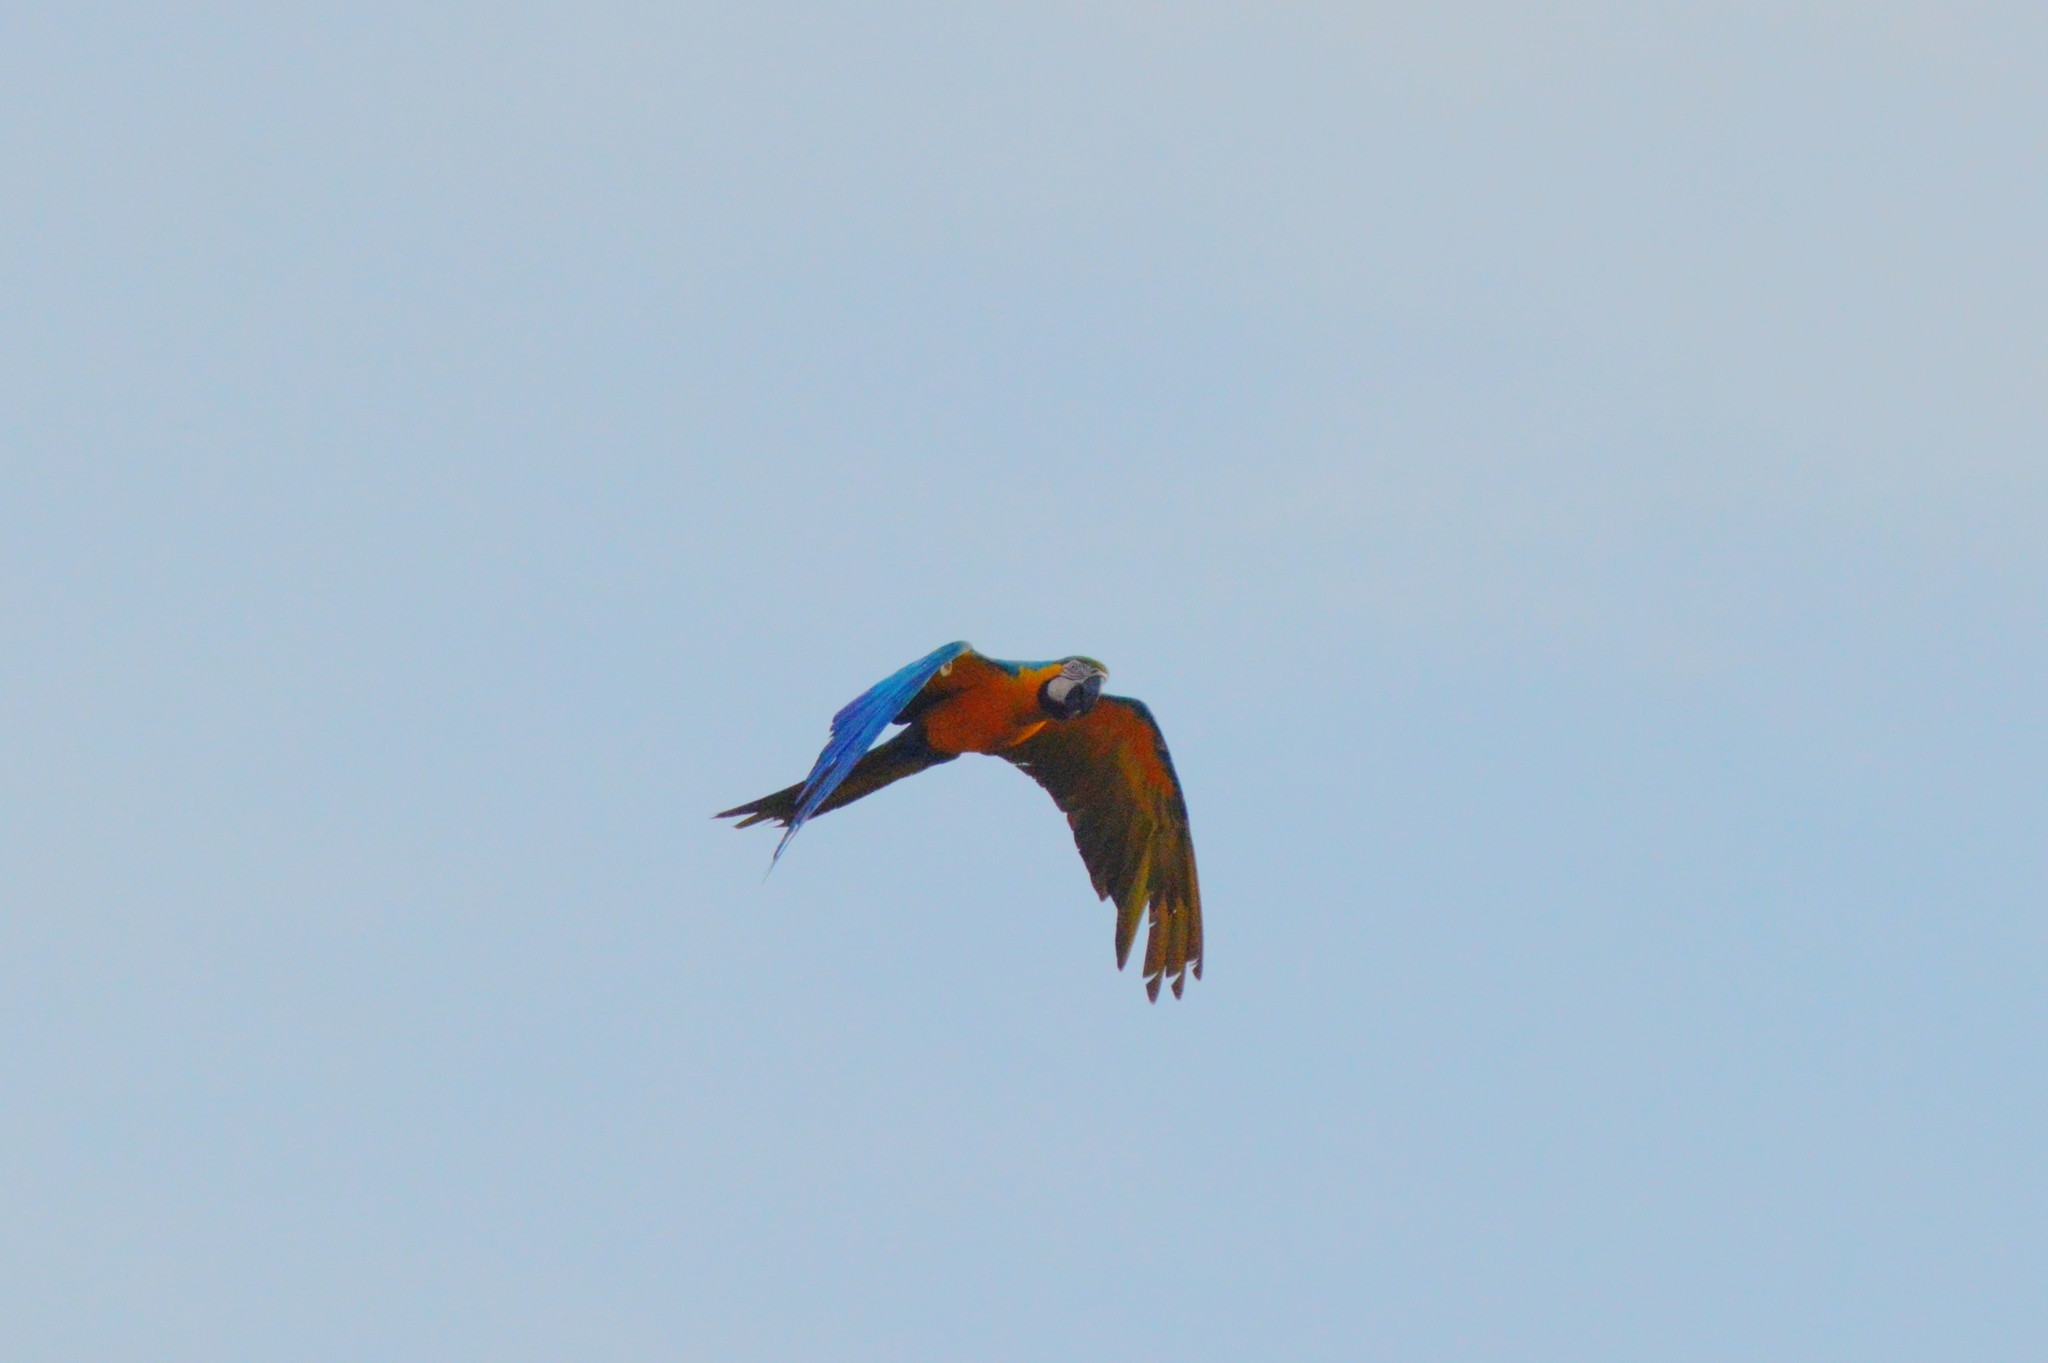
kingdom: Animalia
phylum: Chordata
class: Aves
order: Psittaciformes
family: Psittacidae
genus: Ara
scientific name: Ara ararauna
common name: Blue-and-yellow macaw
